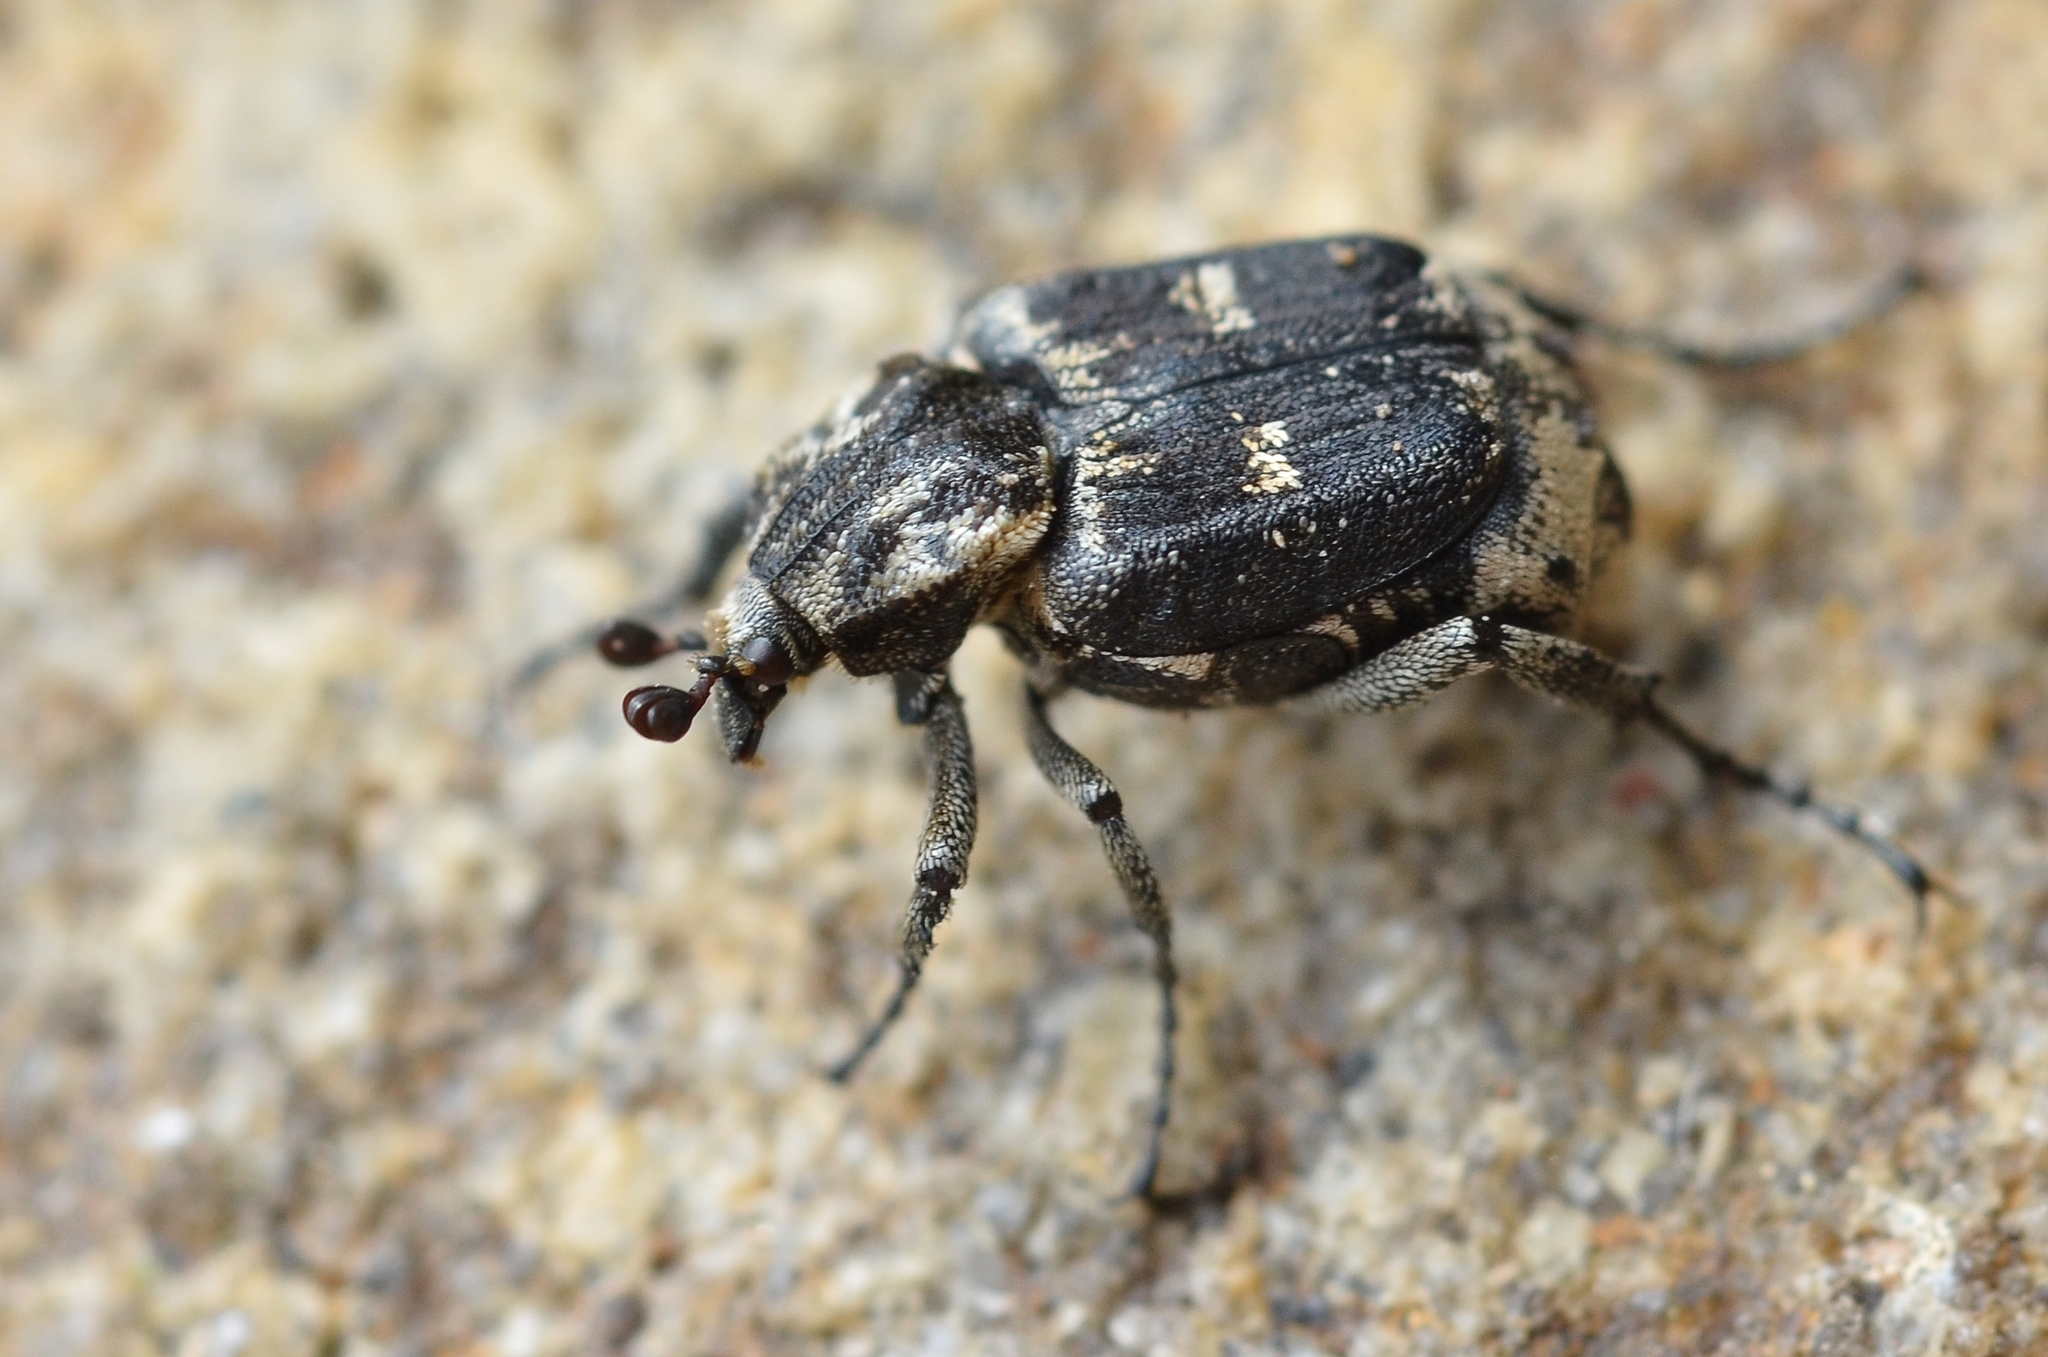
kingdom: Animalia
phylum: Arthropoda
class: Insecta
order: Coleoptera
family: Scarabaeidae
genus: Valgus
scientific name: Valgus hemipterus
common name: Bug flower chafer
